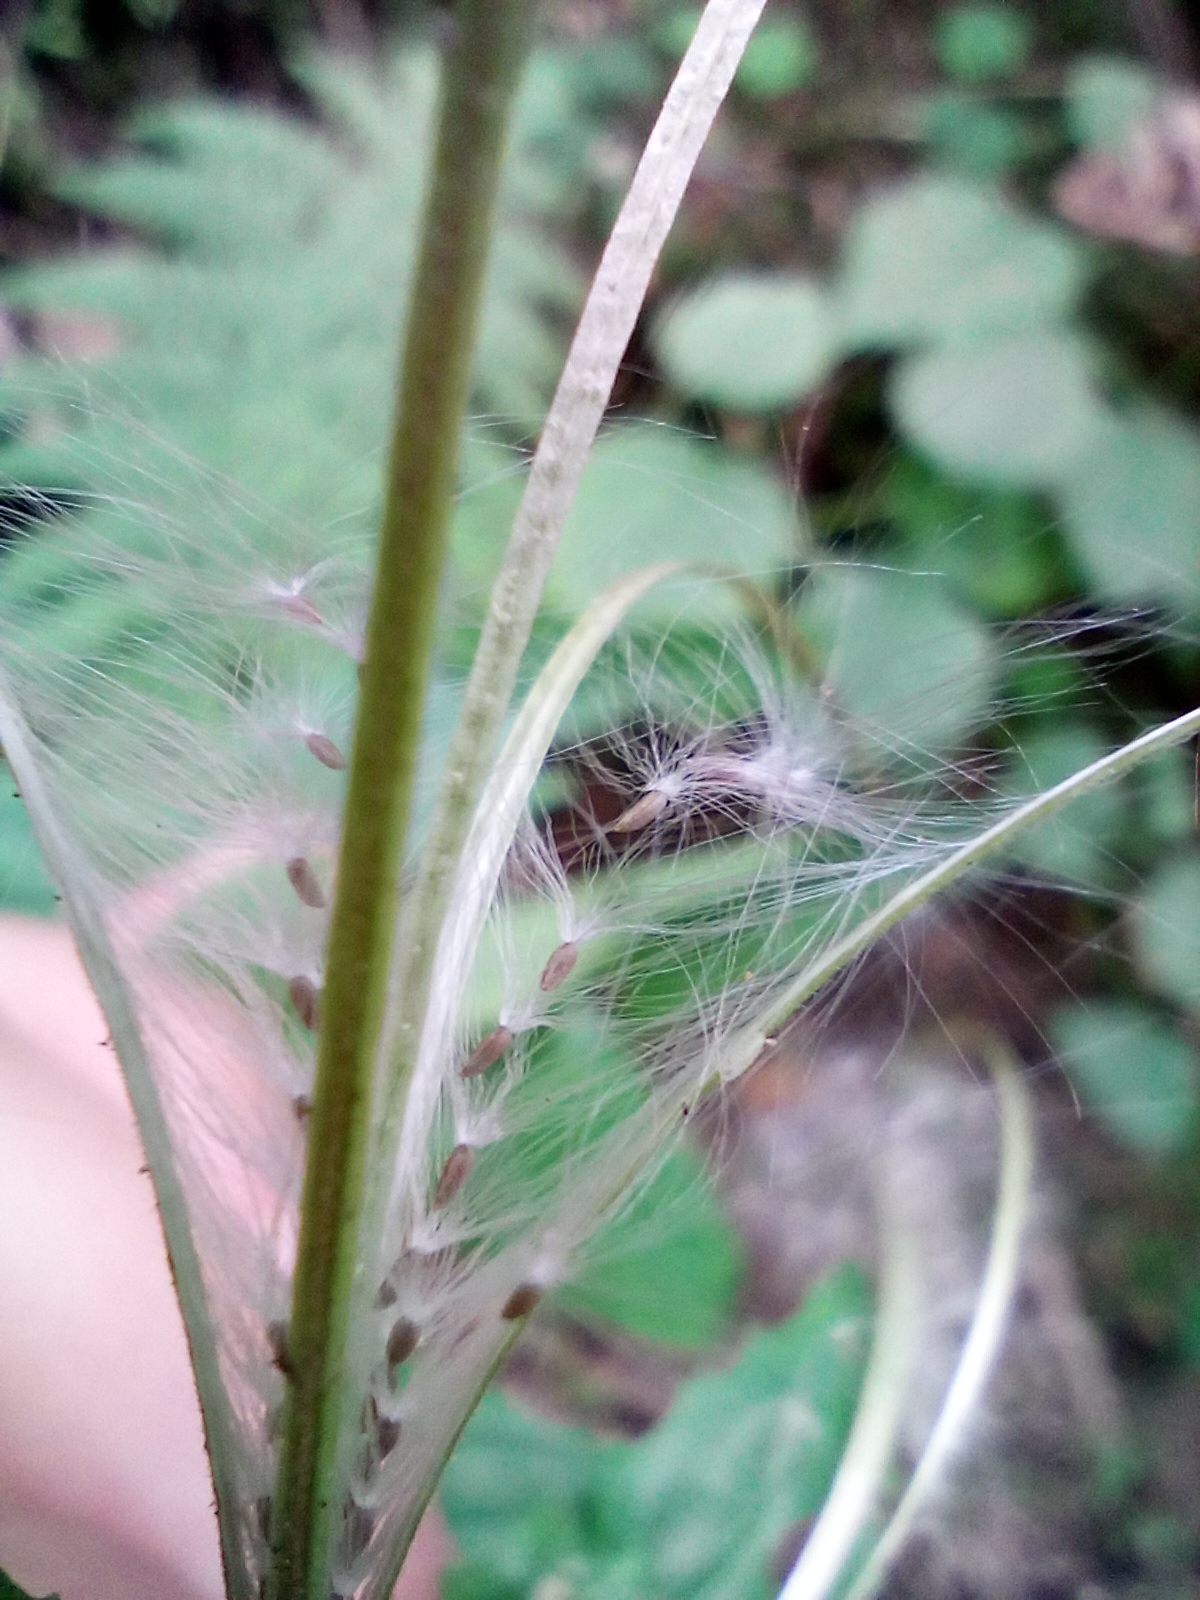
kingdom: Plantae
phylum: Tracheophyta
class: Magnoliopsida
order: Myrtales
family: Onagraceae
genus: Epilobium
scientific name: Epilobium montanum
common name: Broad-leaved willowherb
